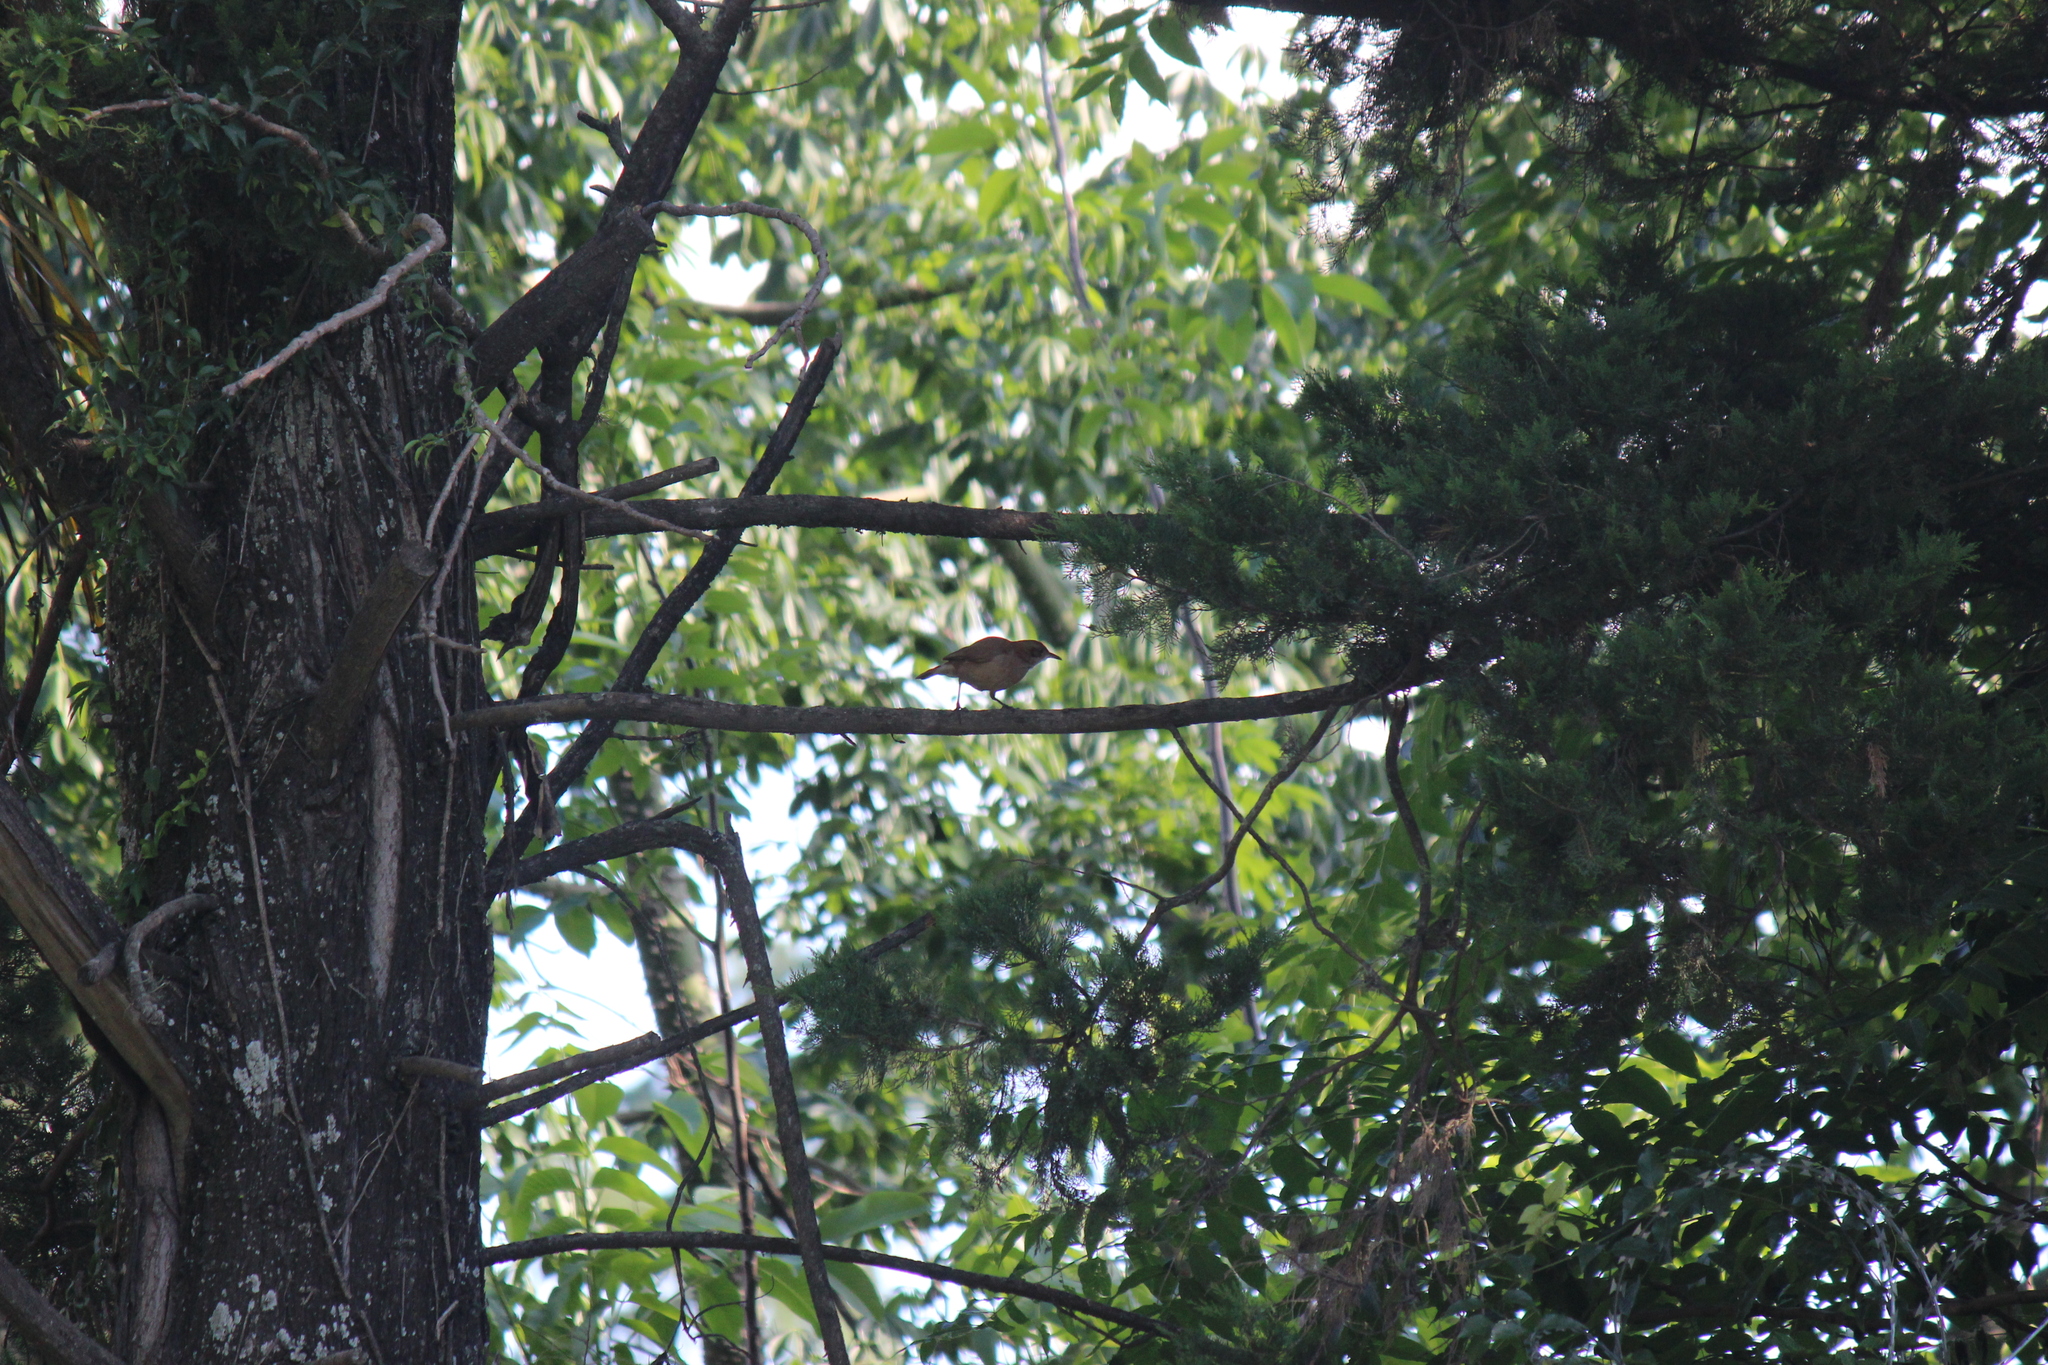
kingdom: Animalia
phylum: Chordata
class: Aves
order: Passeriformes
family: Furnariidae
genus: Furnarius
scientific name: Furnarius rufus
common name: Rufous hornero
